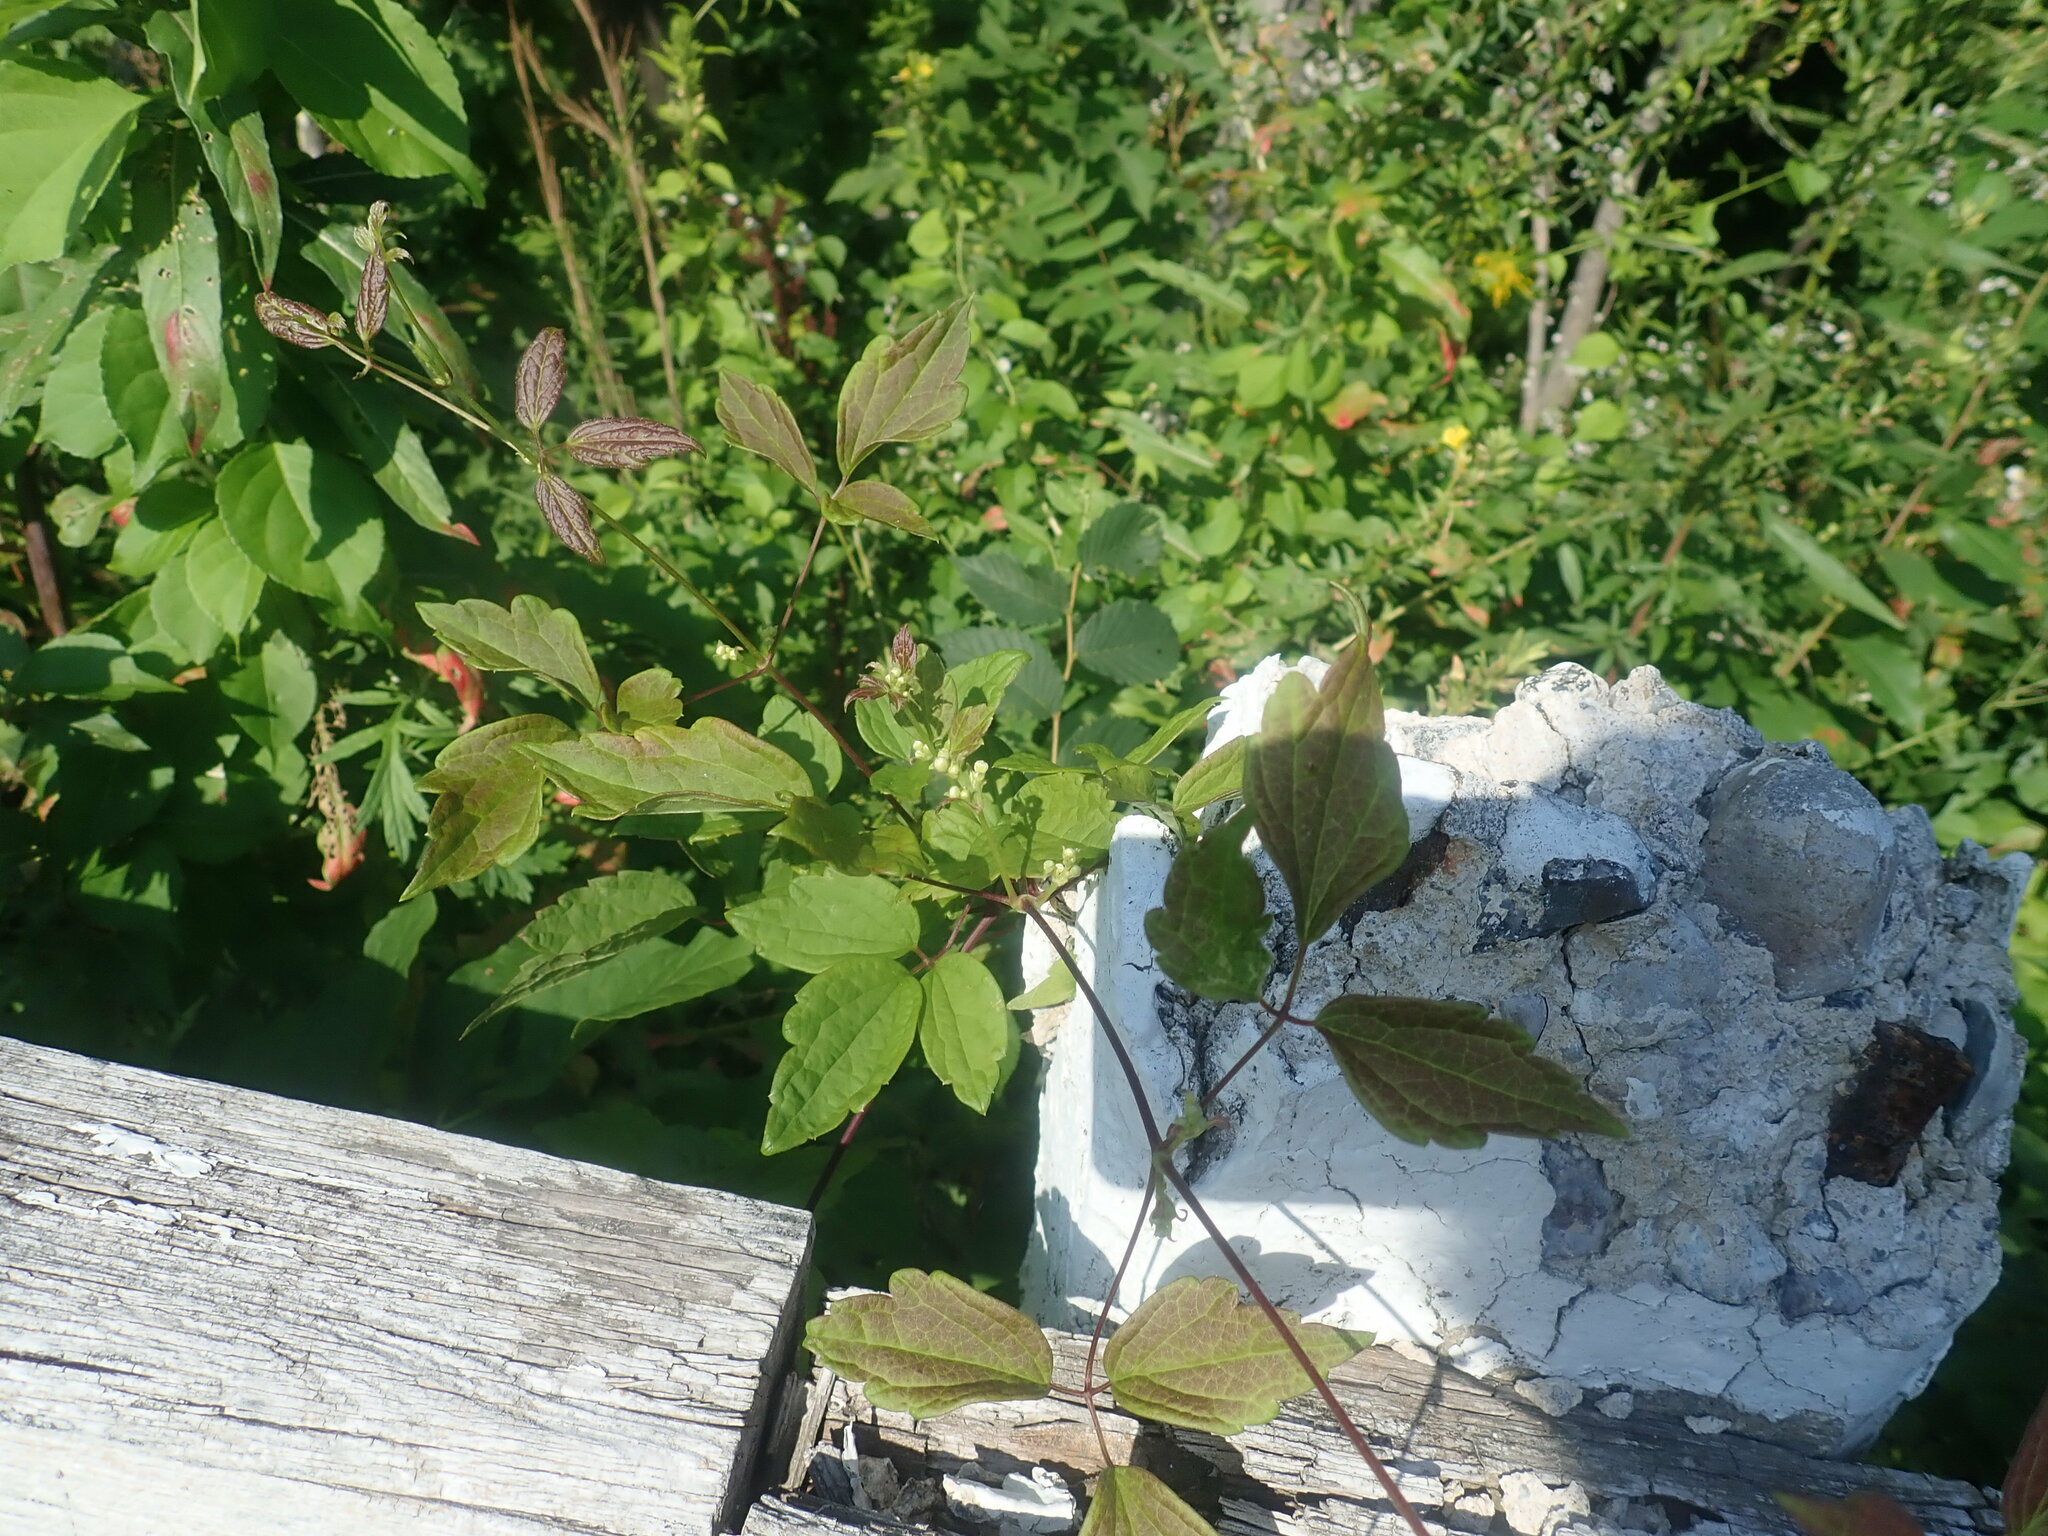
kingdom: Plantae
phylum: Tracheophyta
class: Magnoliopsida
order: Ranunculales
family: Ranunculaceae
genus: Clematis
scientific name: Clematis virginiana
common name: Virgin's-bower
